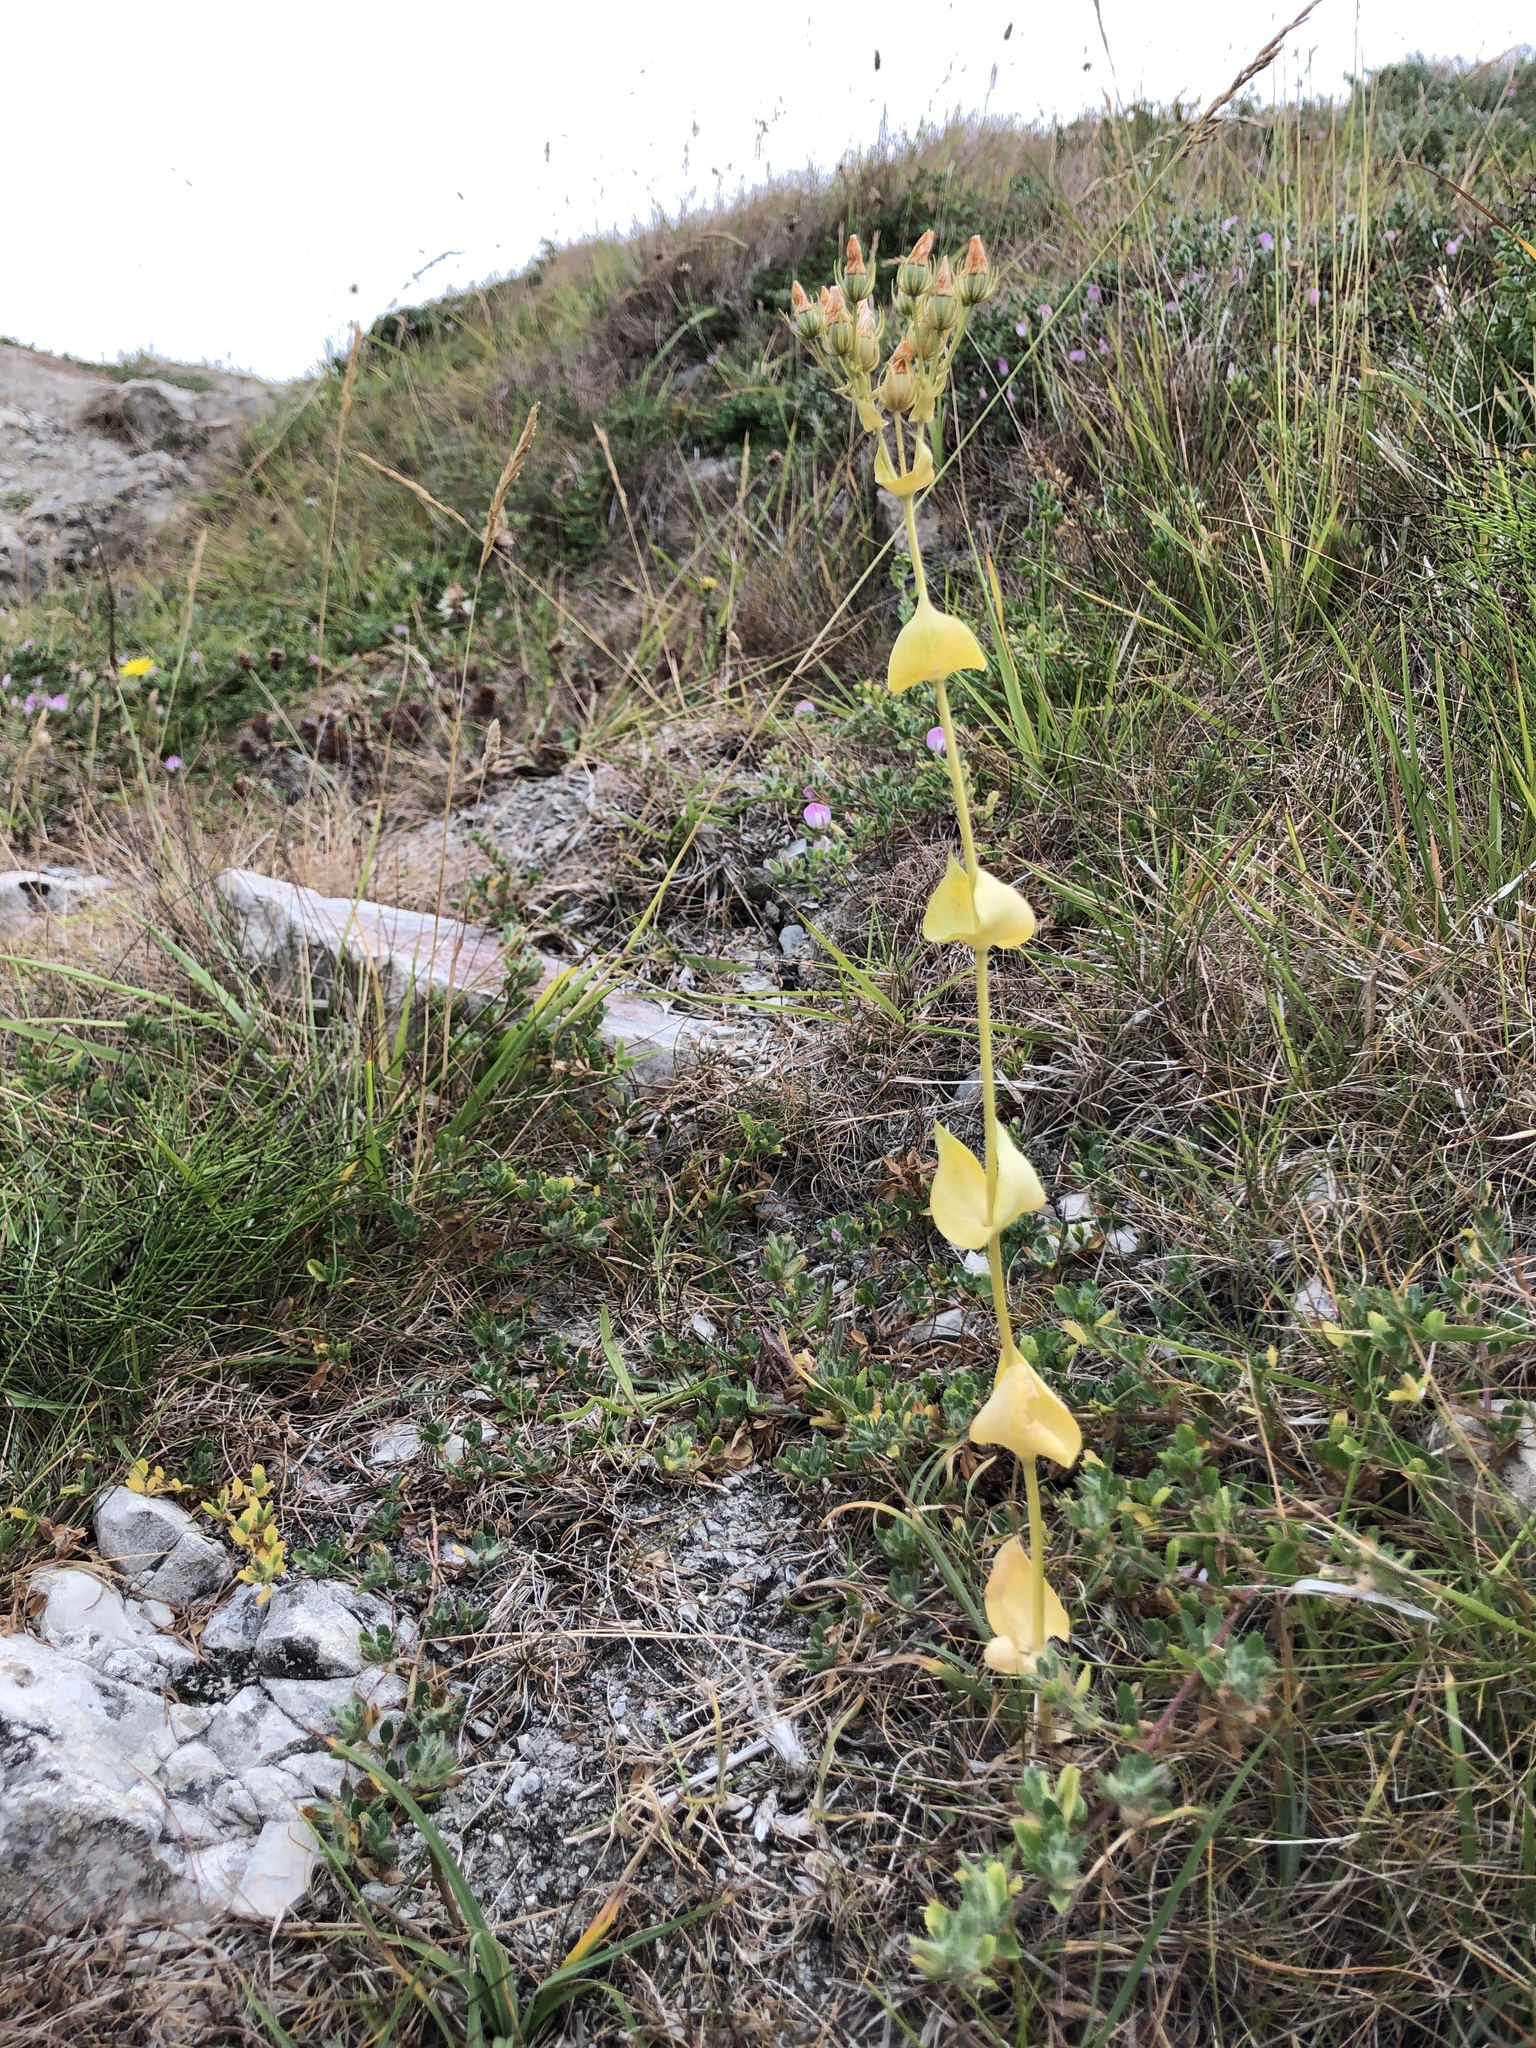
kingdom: Plantae
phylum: Tracheophyta
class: Magnoliopsida
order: Gentianales
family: Gentianaceae
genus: Blackstonia
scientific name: Blackstonia perfoliata
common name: Yellow-wort
